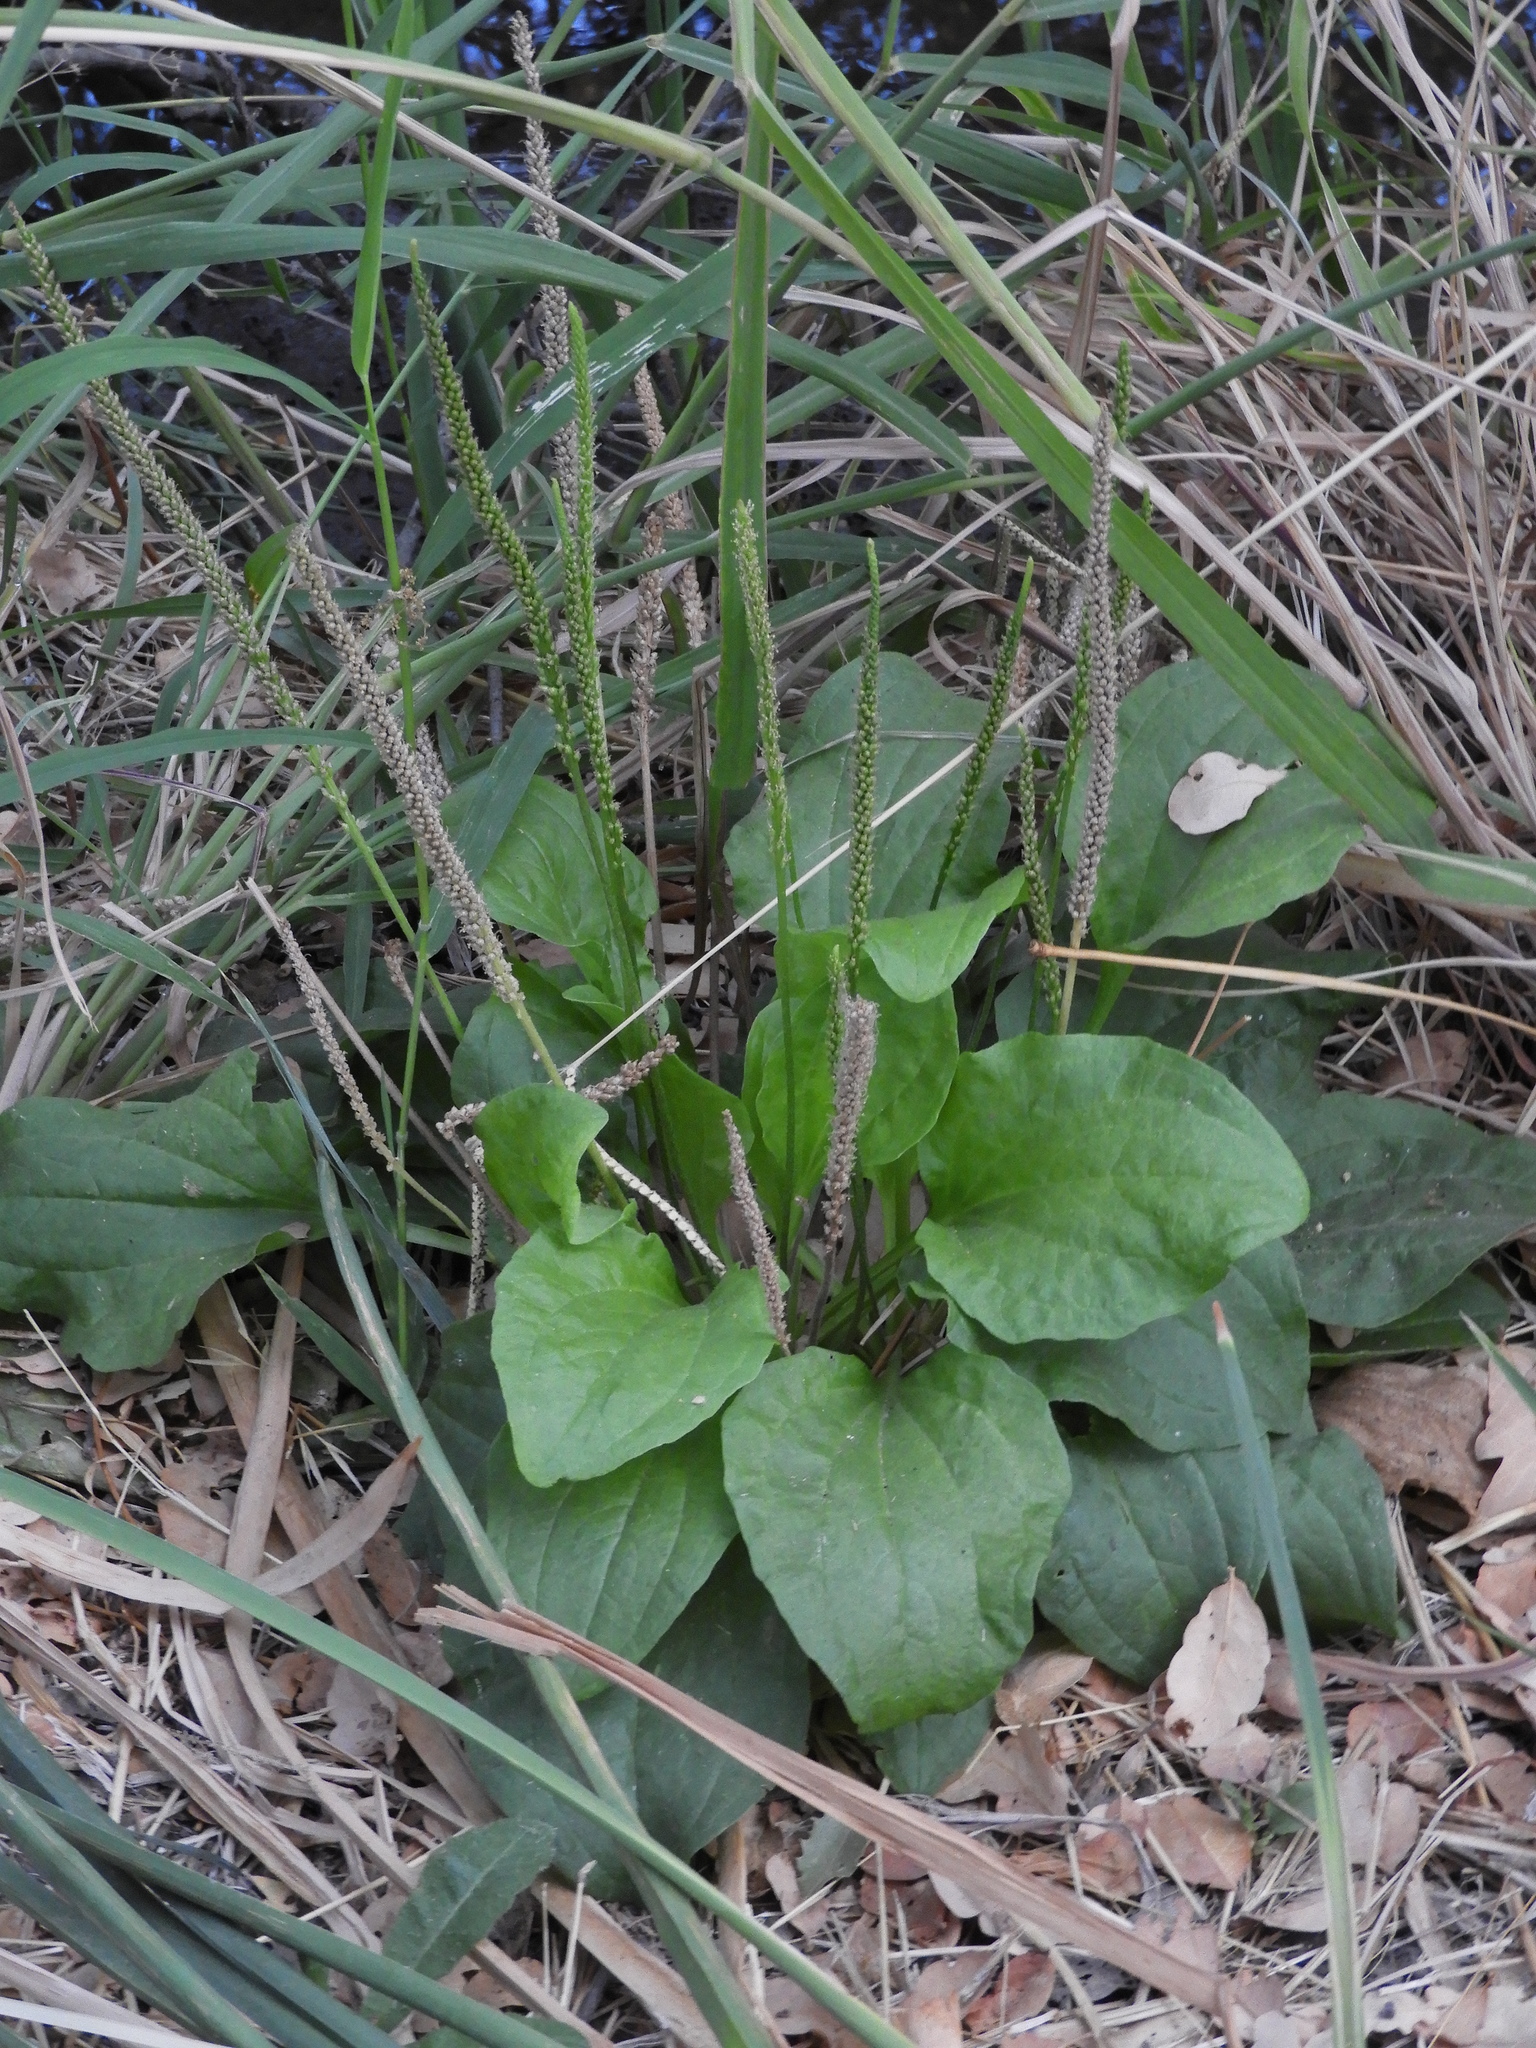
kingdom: Plantae
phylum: Tracheophyta
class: Magnoliopsida
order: Lamiales
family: Plantaginaceae
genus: Plantago
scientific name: Plantago major
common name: Common plantain
